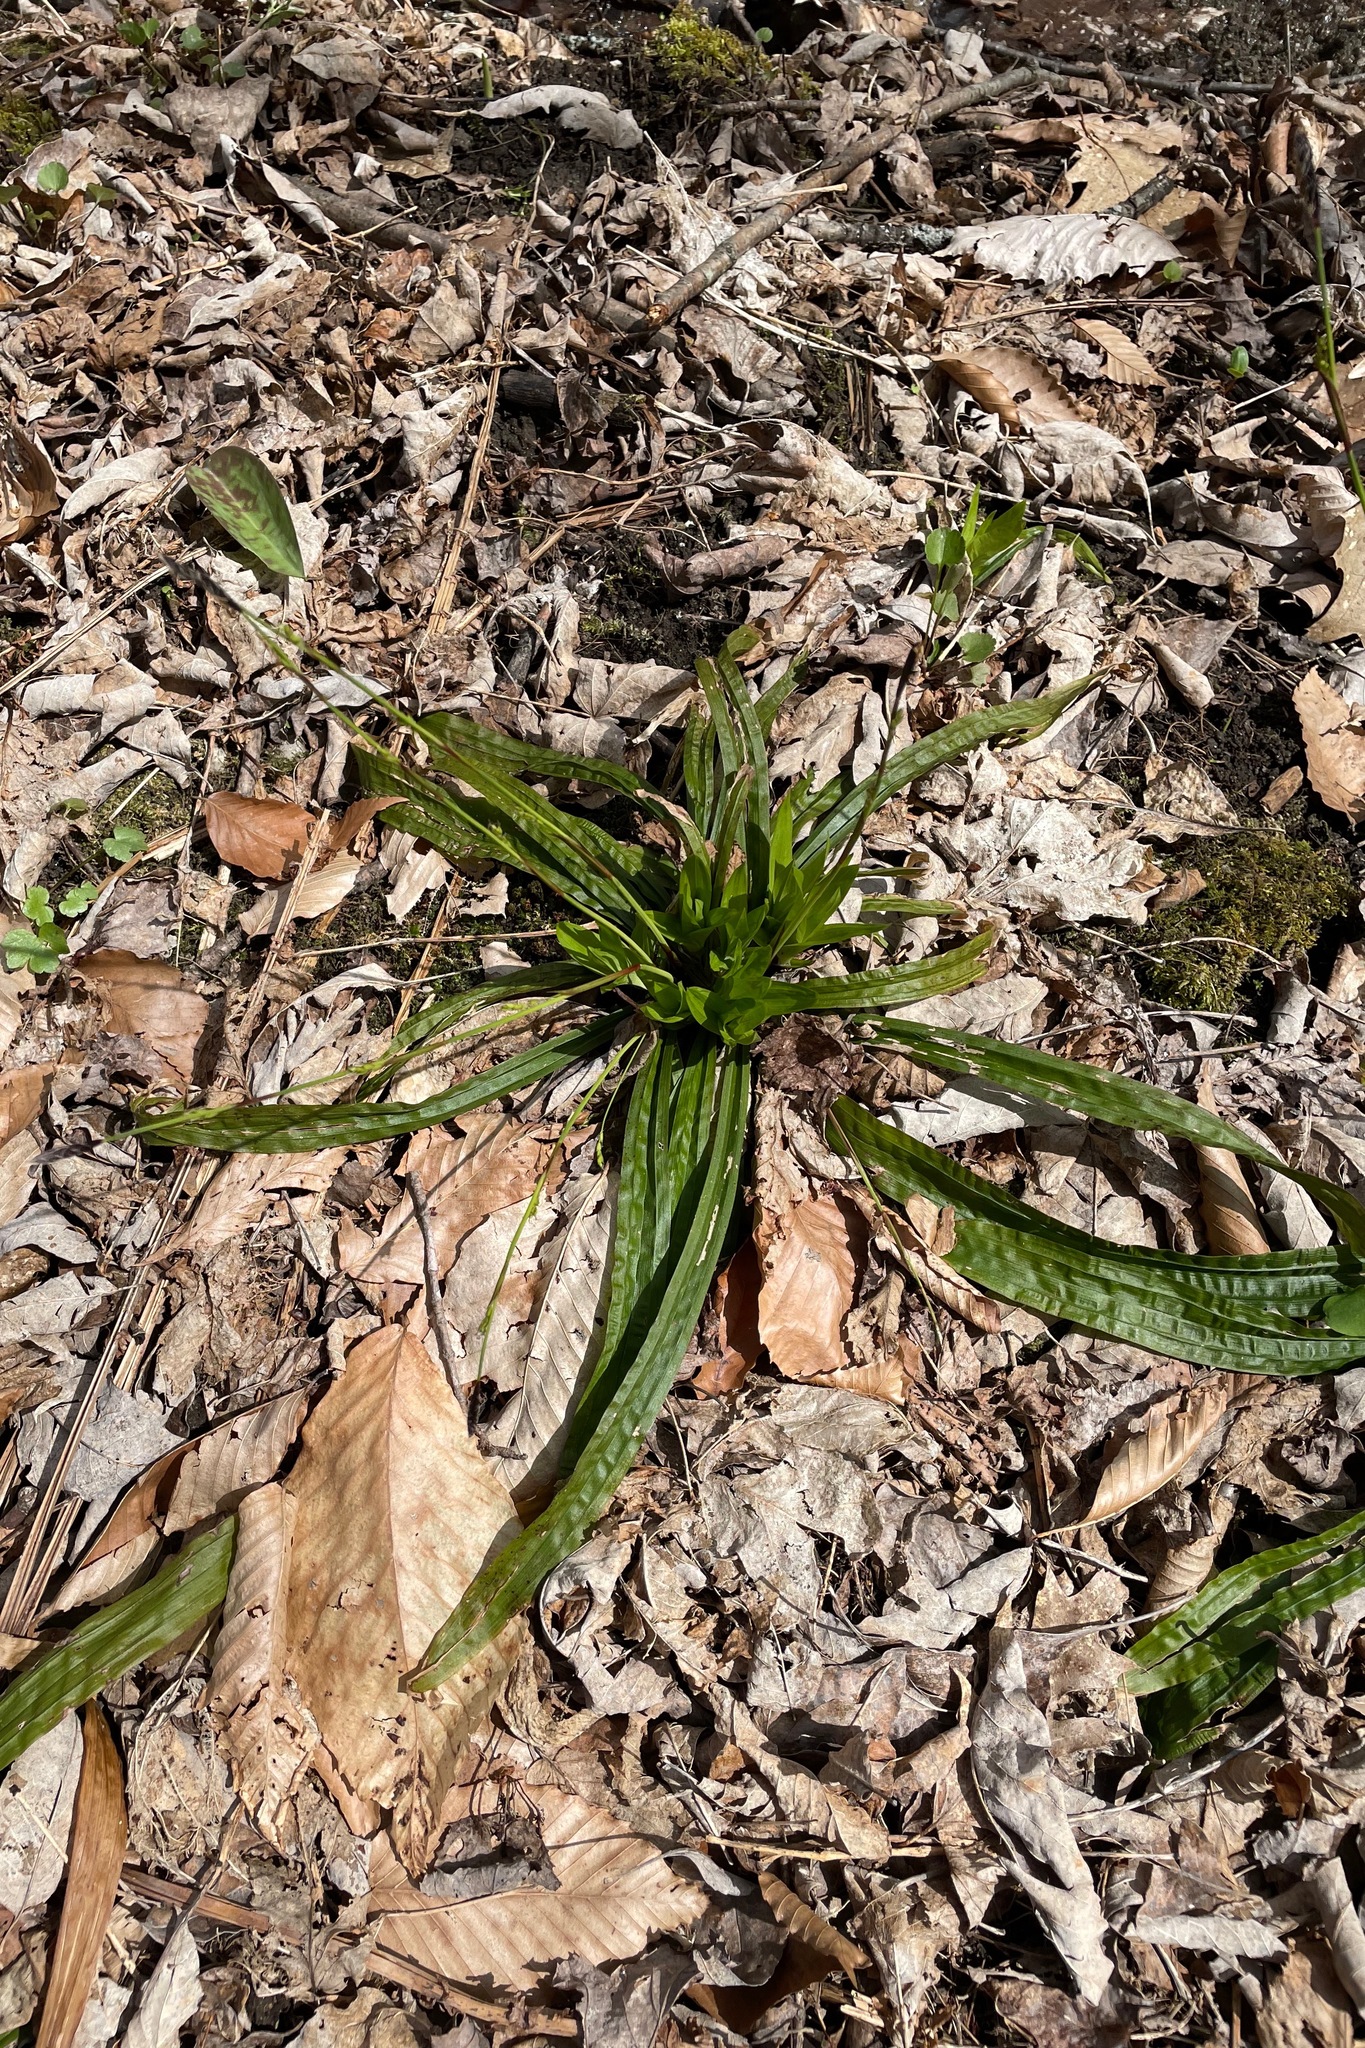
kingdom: Plantae
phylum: Tracheophyta
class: Liliopsida
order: Poales
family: Cyperaceae
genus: Carex
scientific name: Carex plantaginea
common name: Plantain-leaved sedge
